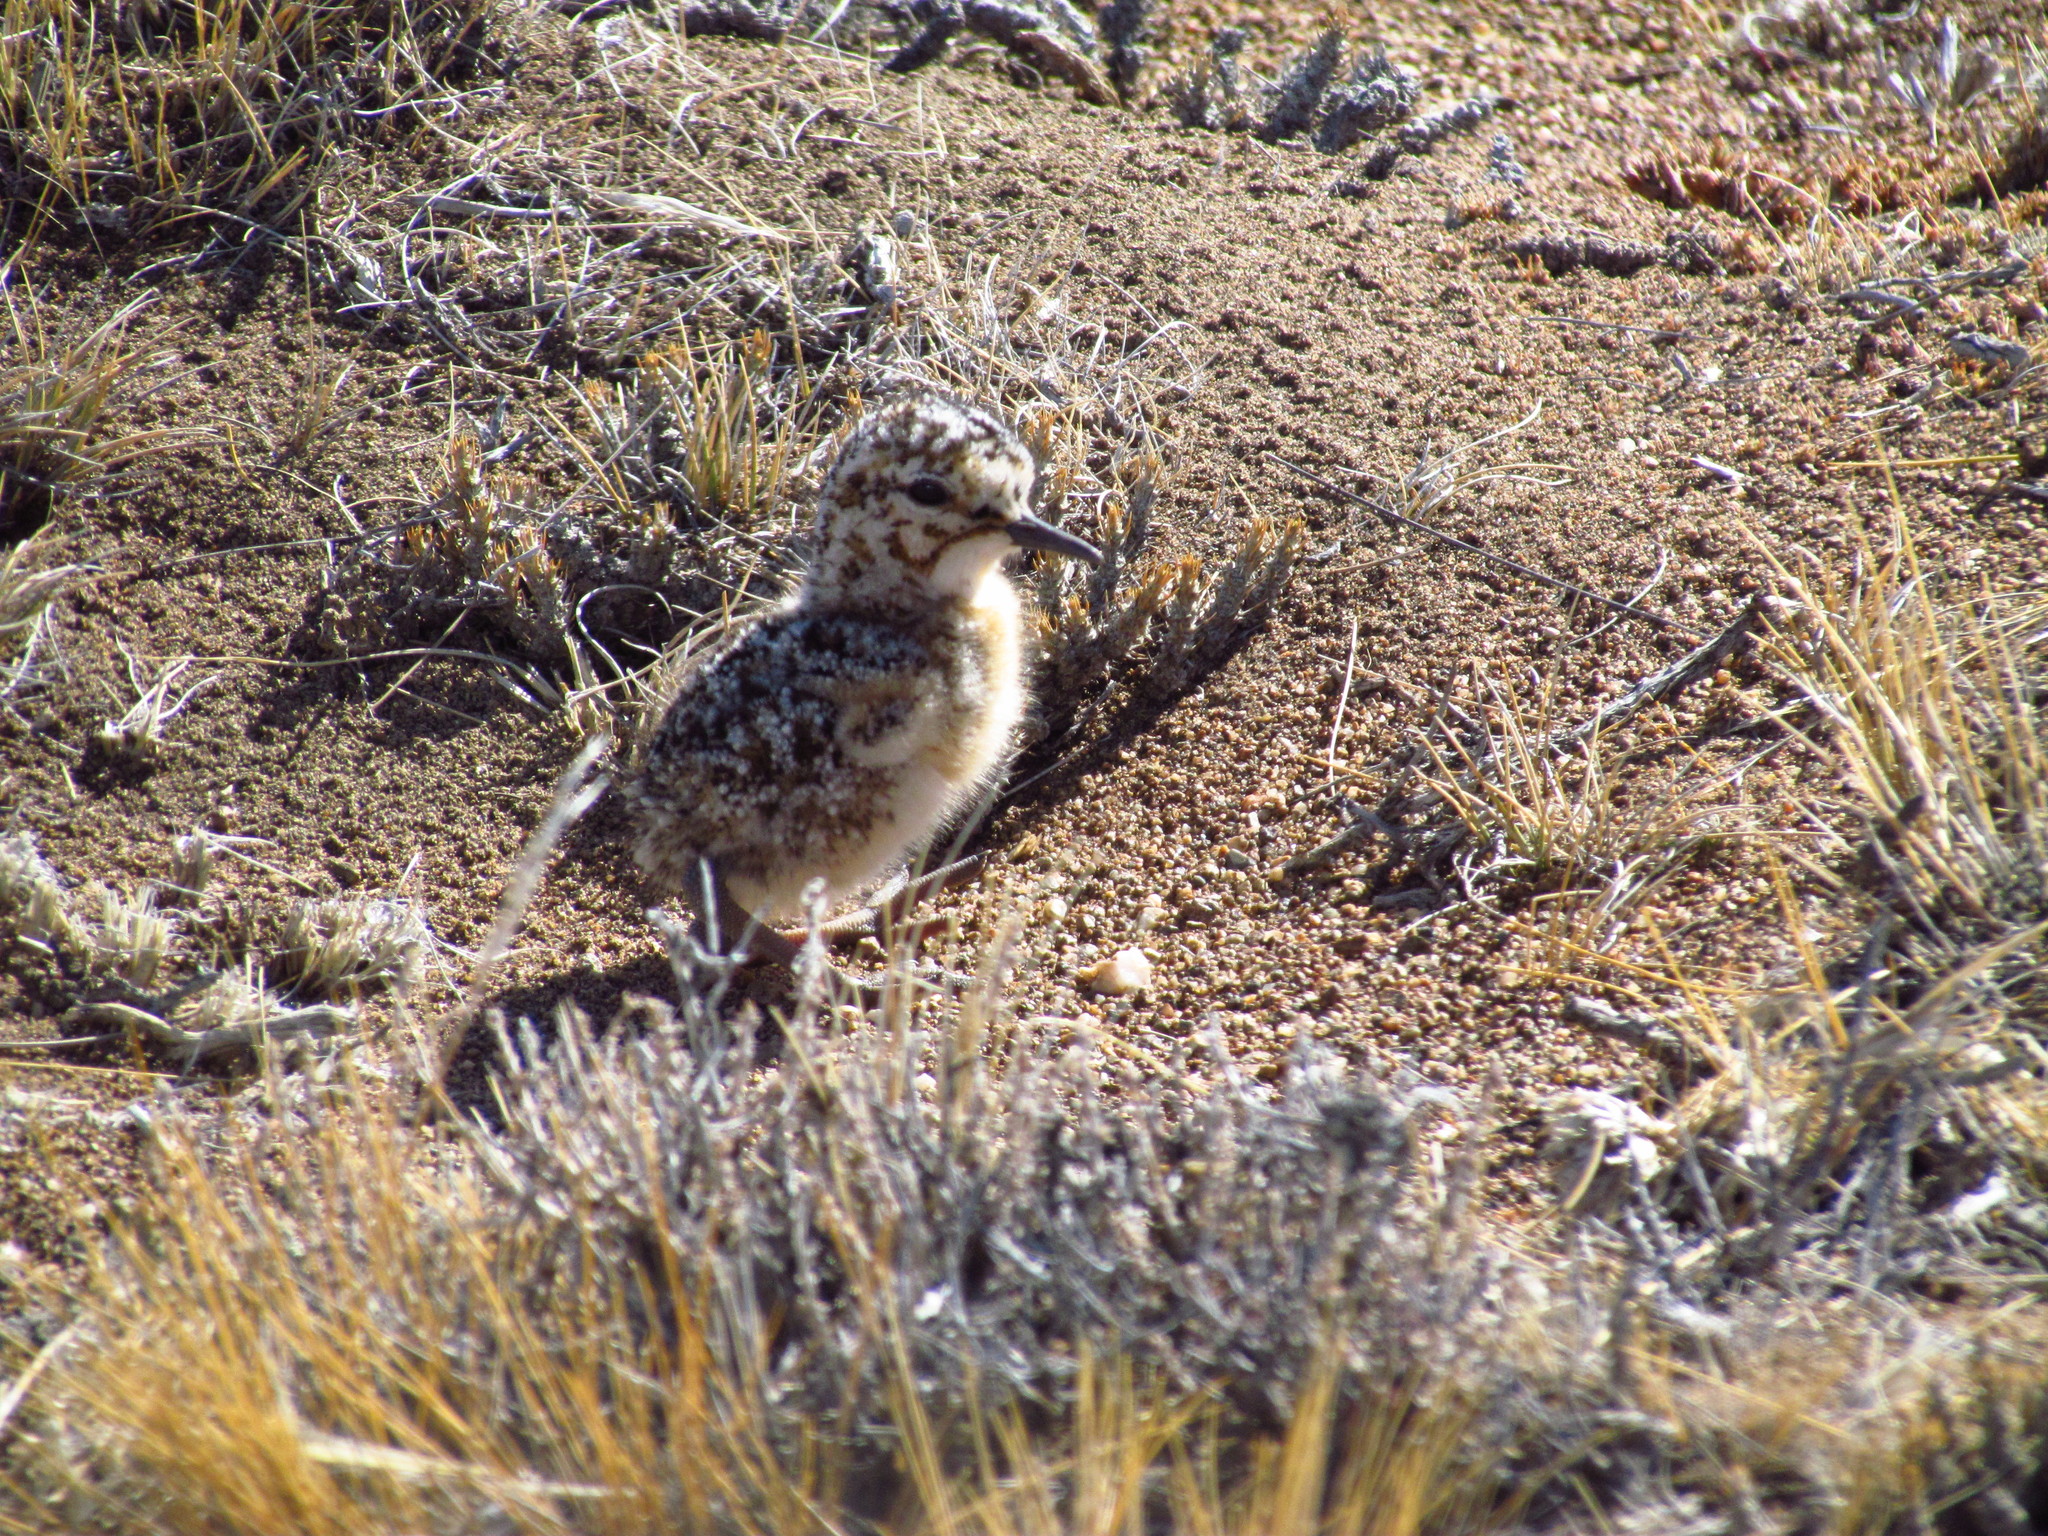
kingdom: Animalia
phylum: Chordata
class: Aves
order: Charadriiformes
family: Charadriidae
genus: Oreopholus
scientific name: Oreopholus ruficollis
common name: Tawny-throated dotterel
